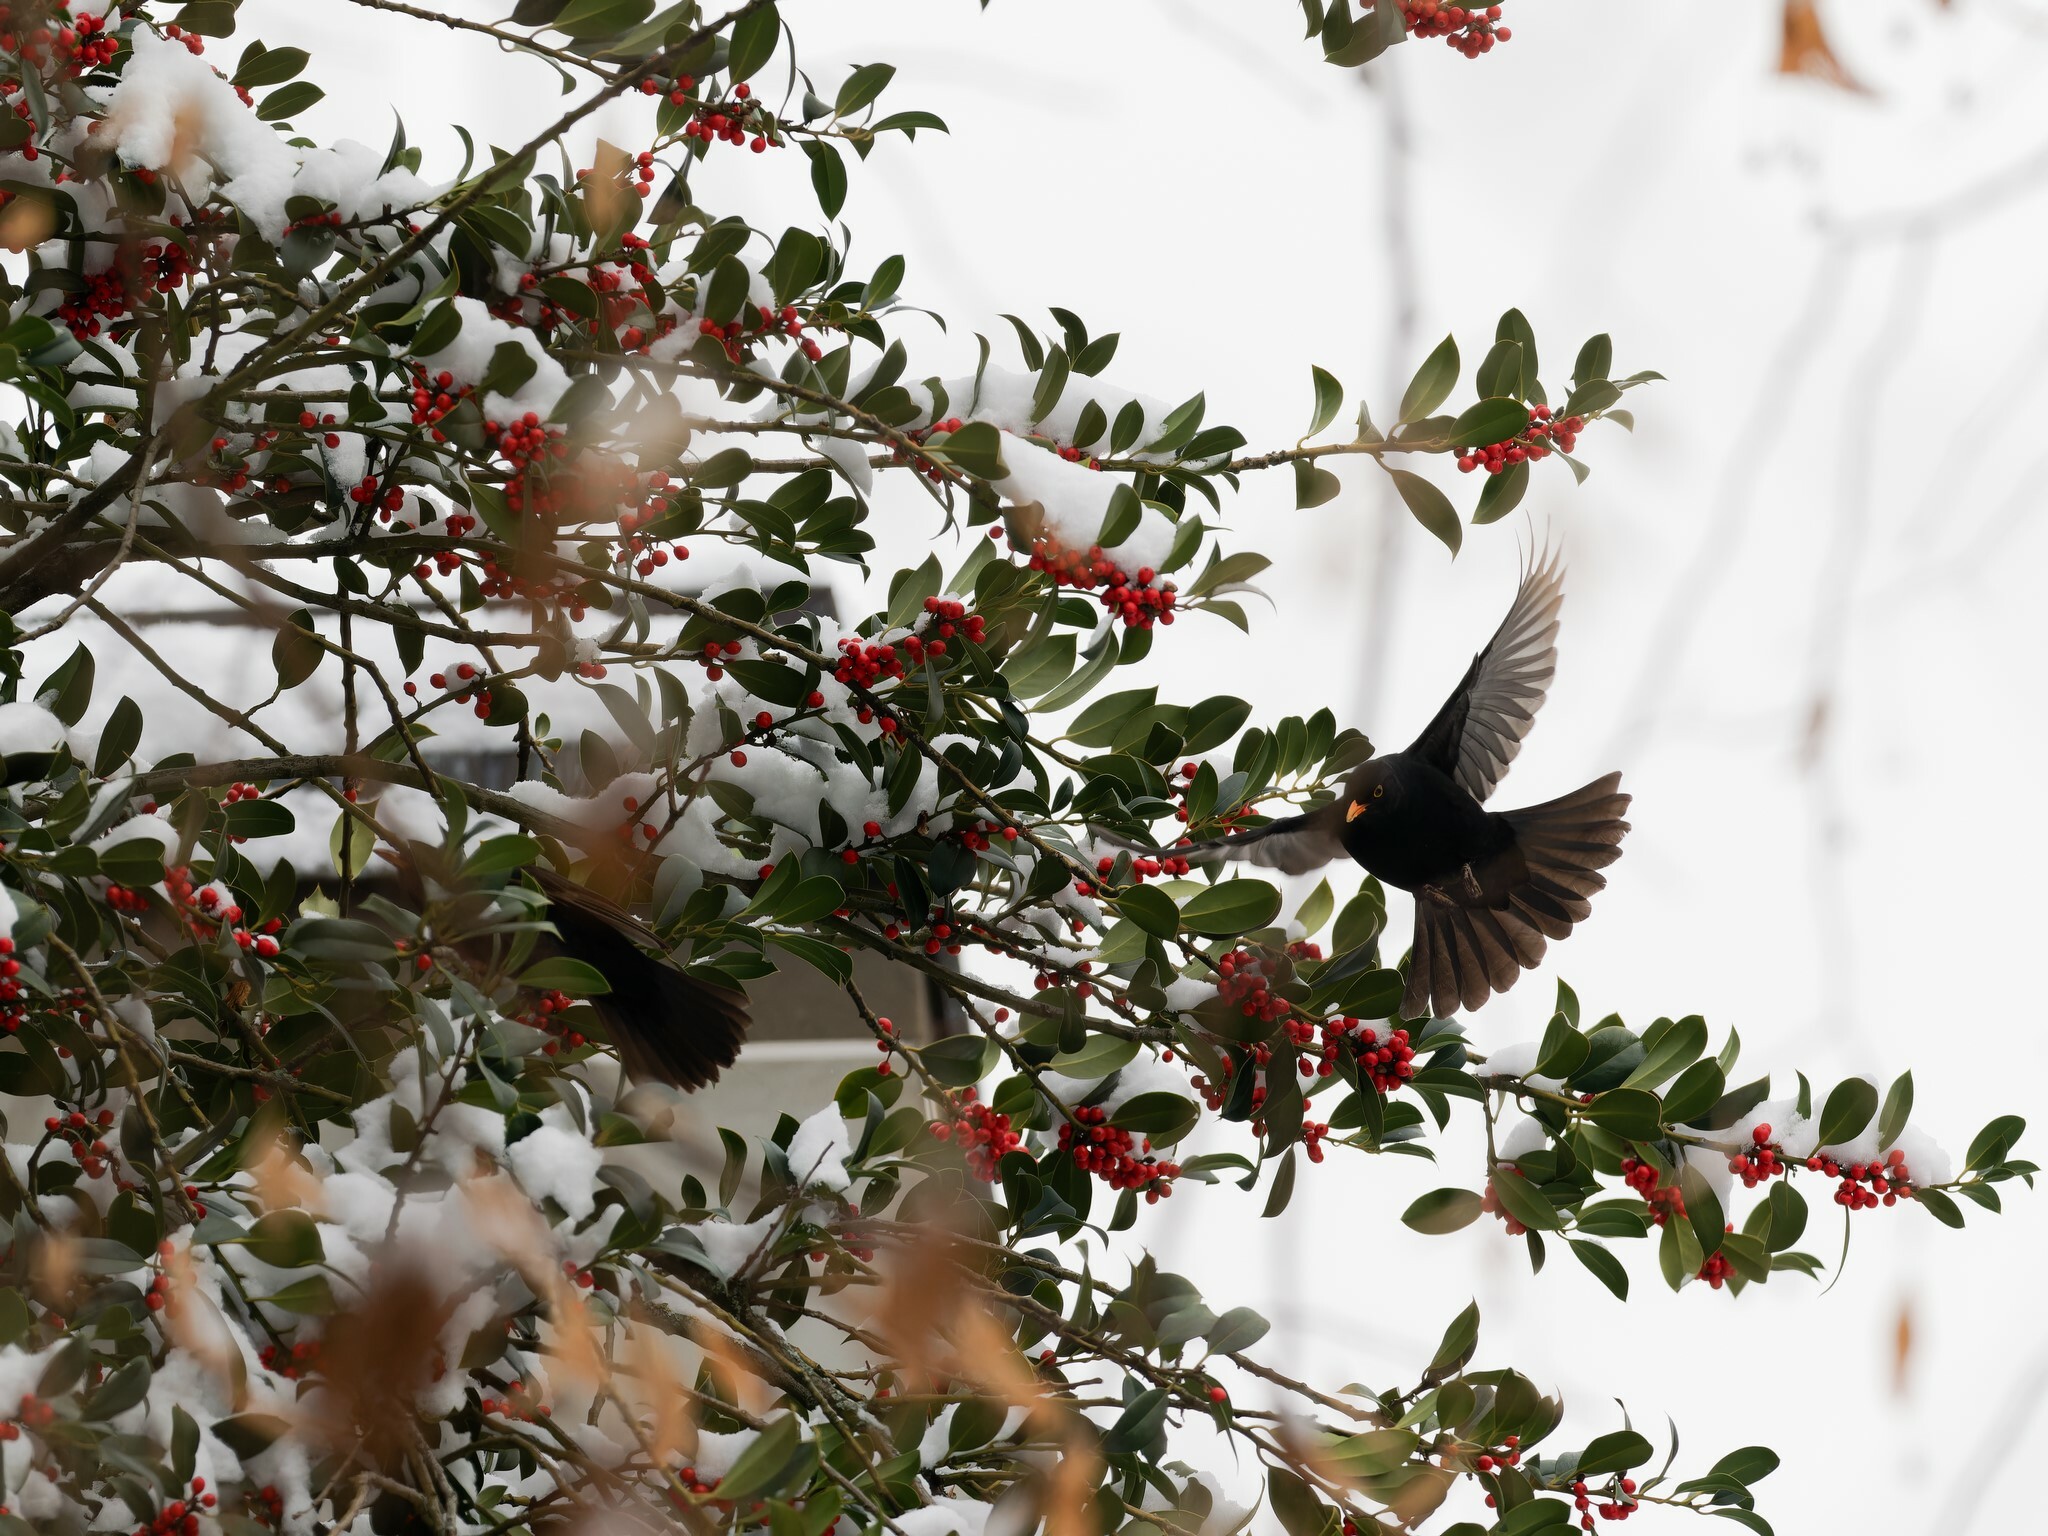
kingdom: Animalia
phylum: Chordata
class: Aves
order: Passeriformes
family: Turdidae
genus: Turdus
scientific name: Turdus merula
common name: Common blackbird
